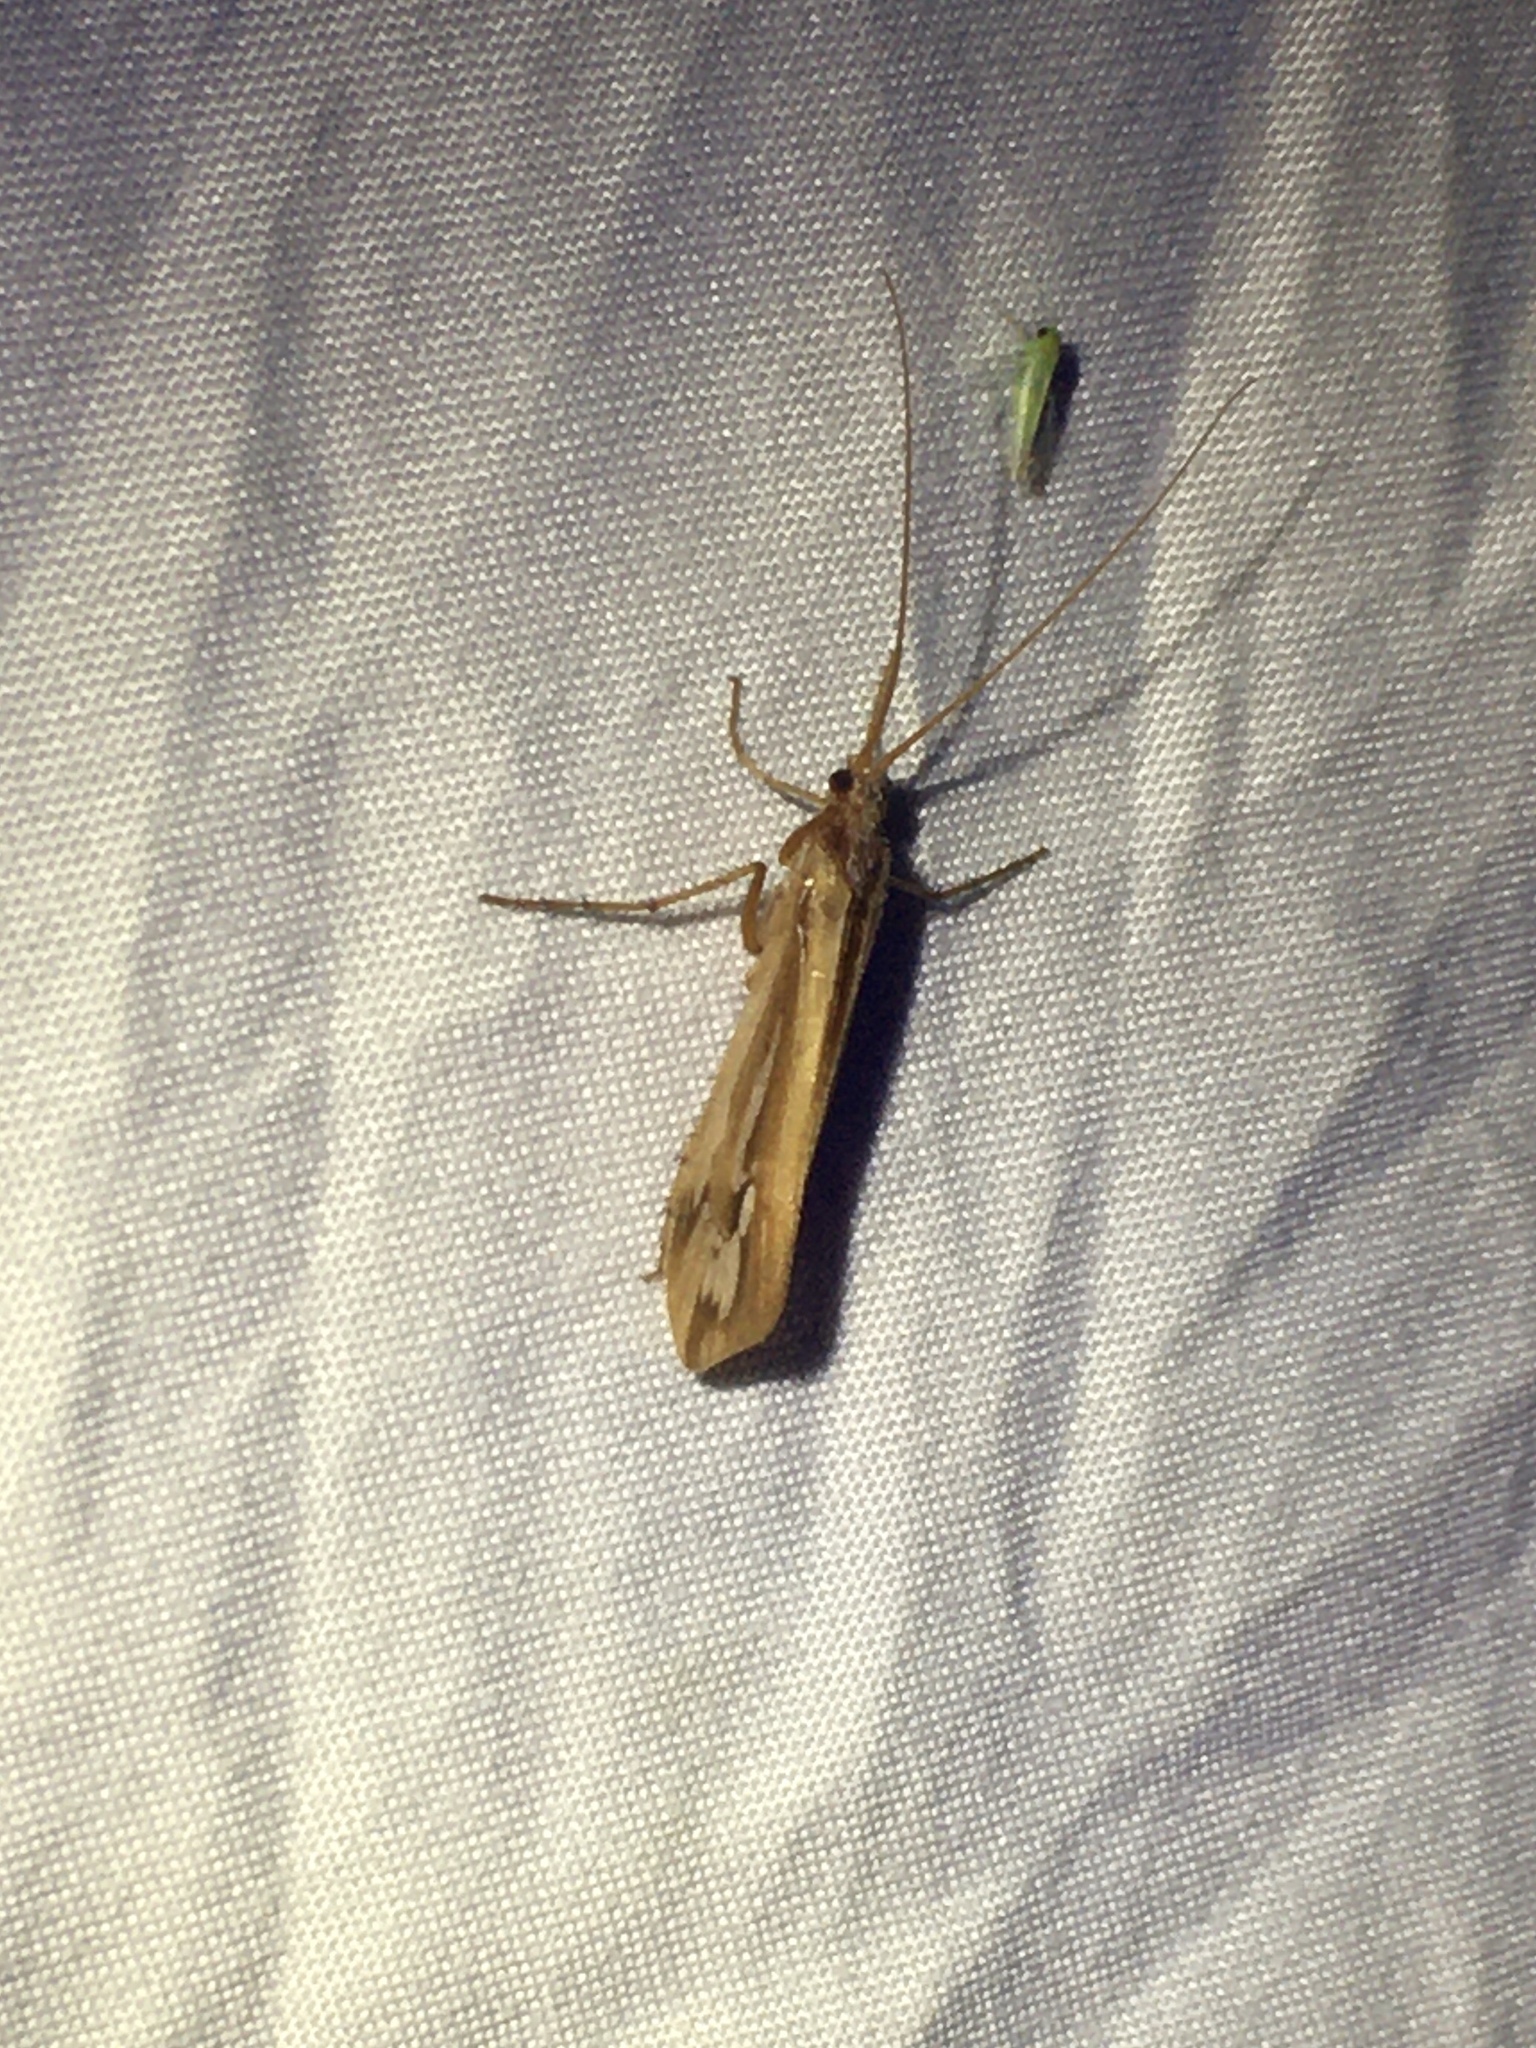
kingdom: Animalia
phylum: Arthropoda
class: Insecta
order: Trichoptera
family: Limnephilidae
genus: Limnephilus
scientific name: Limnephilus ornatus
